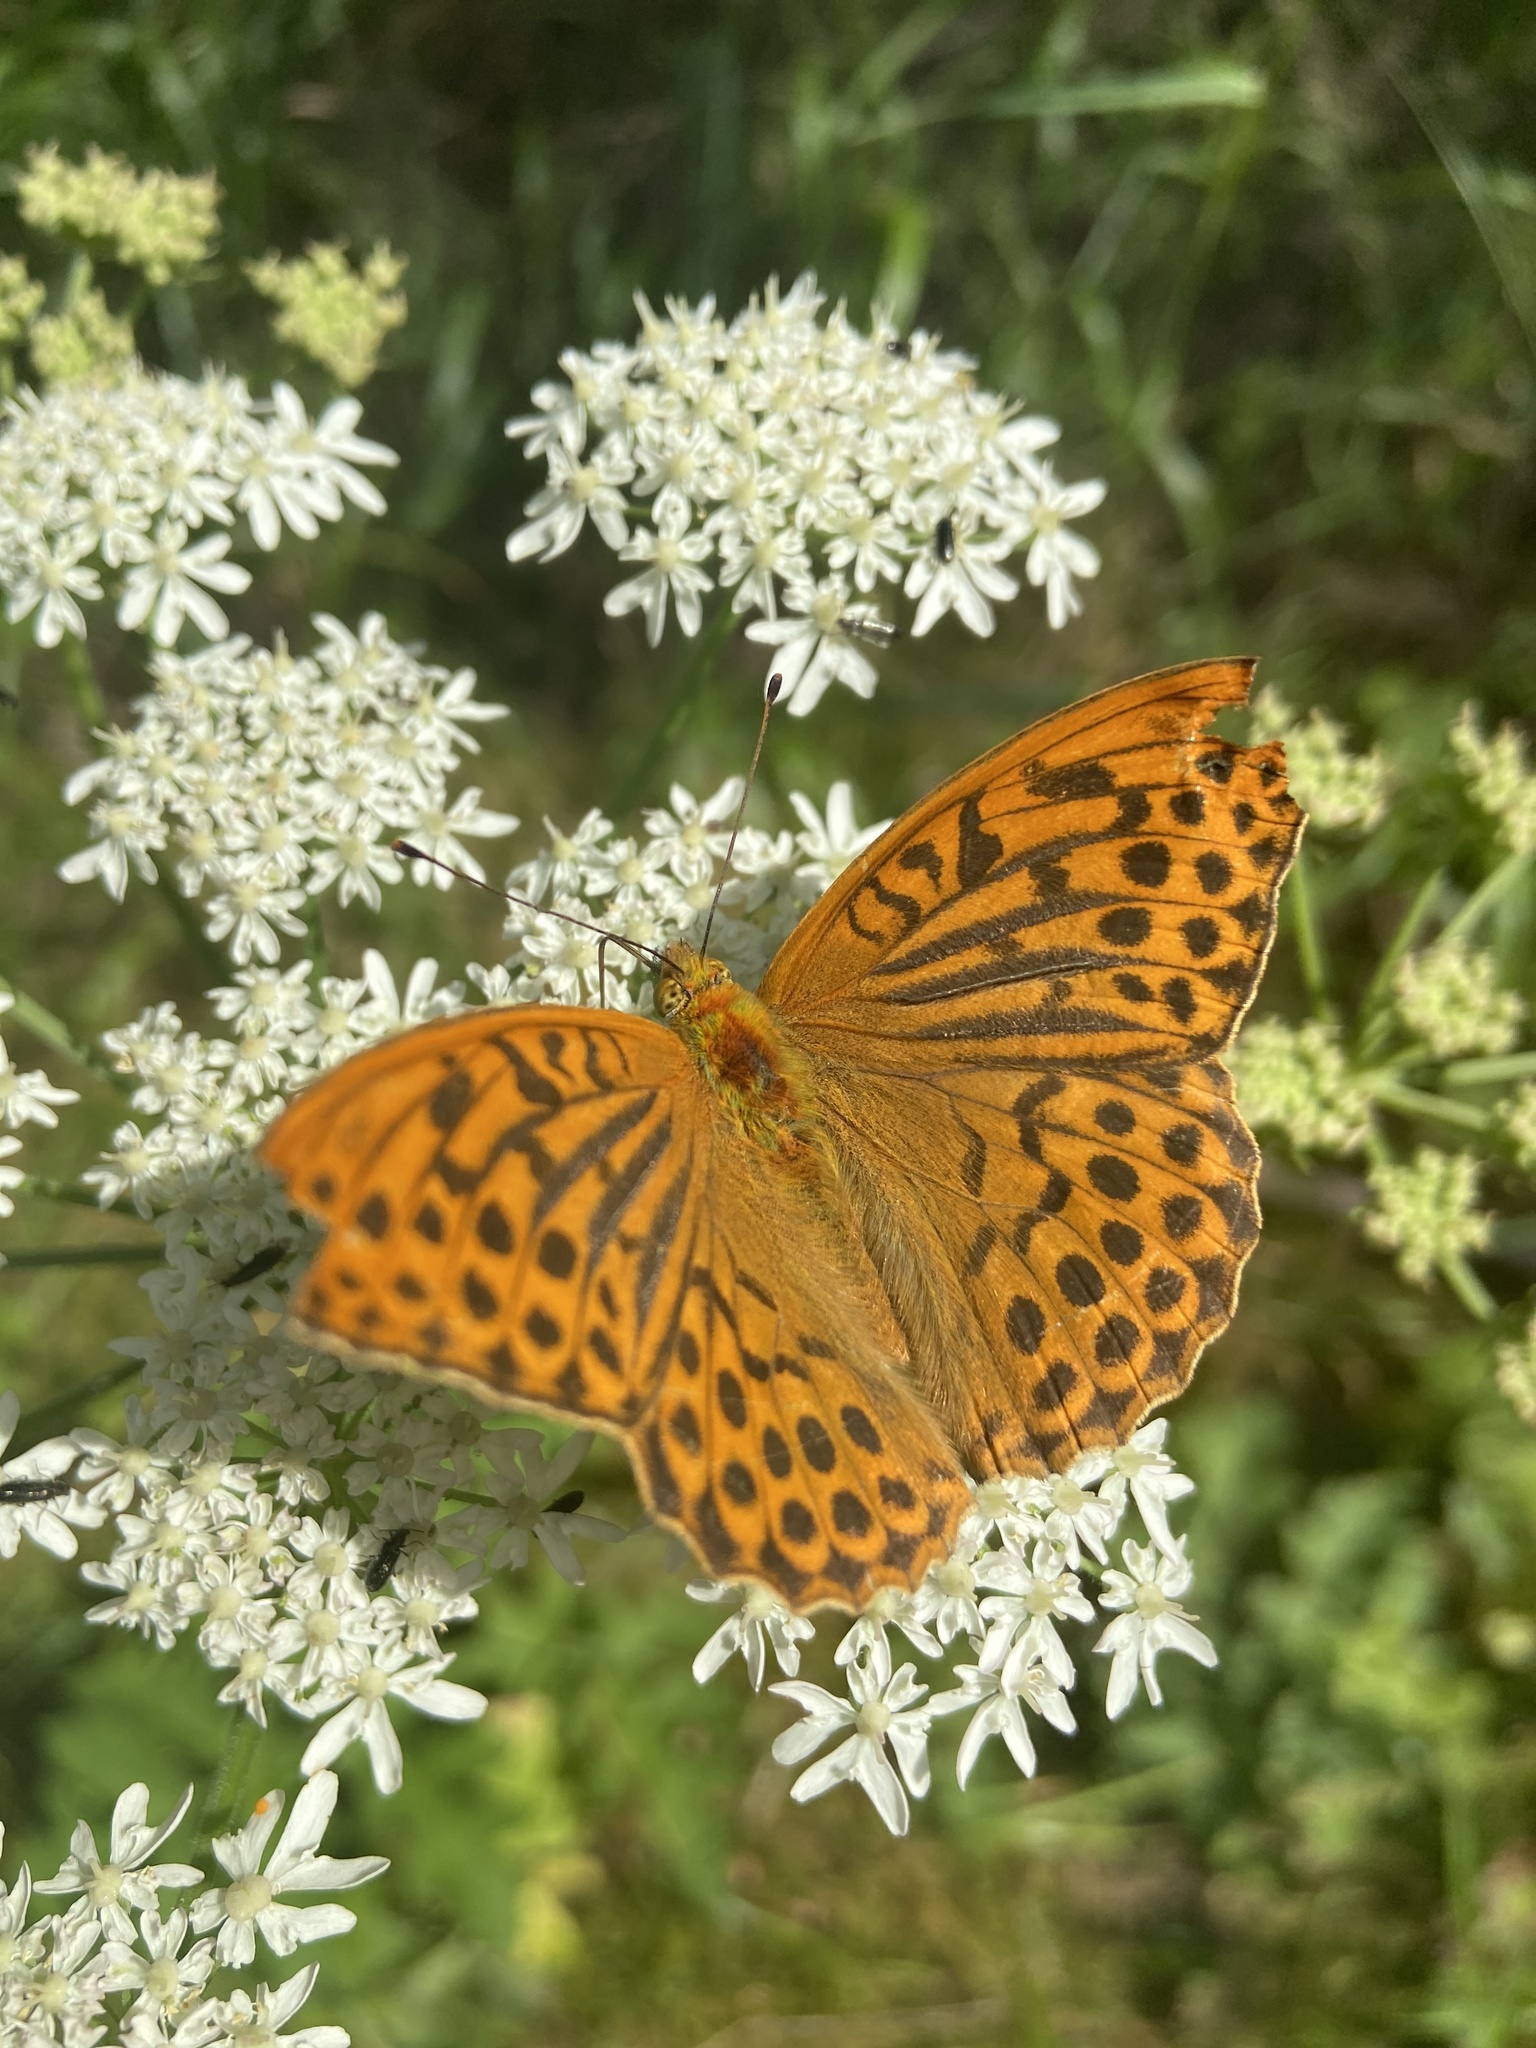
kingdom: Animalia
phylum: Arthropoda
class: Insecta
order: Lepidoptera
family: Nymphalidae
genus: Argynnis
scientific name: Argynnis paphia
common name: Silver-washed fritillary
